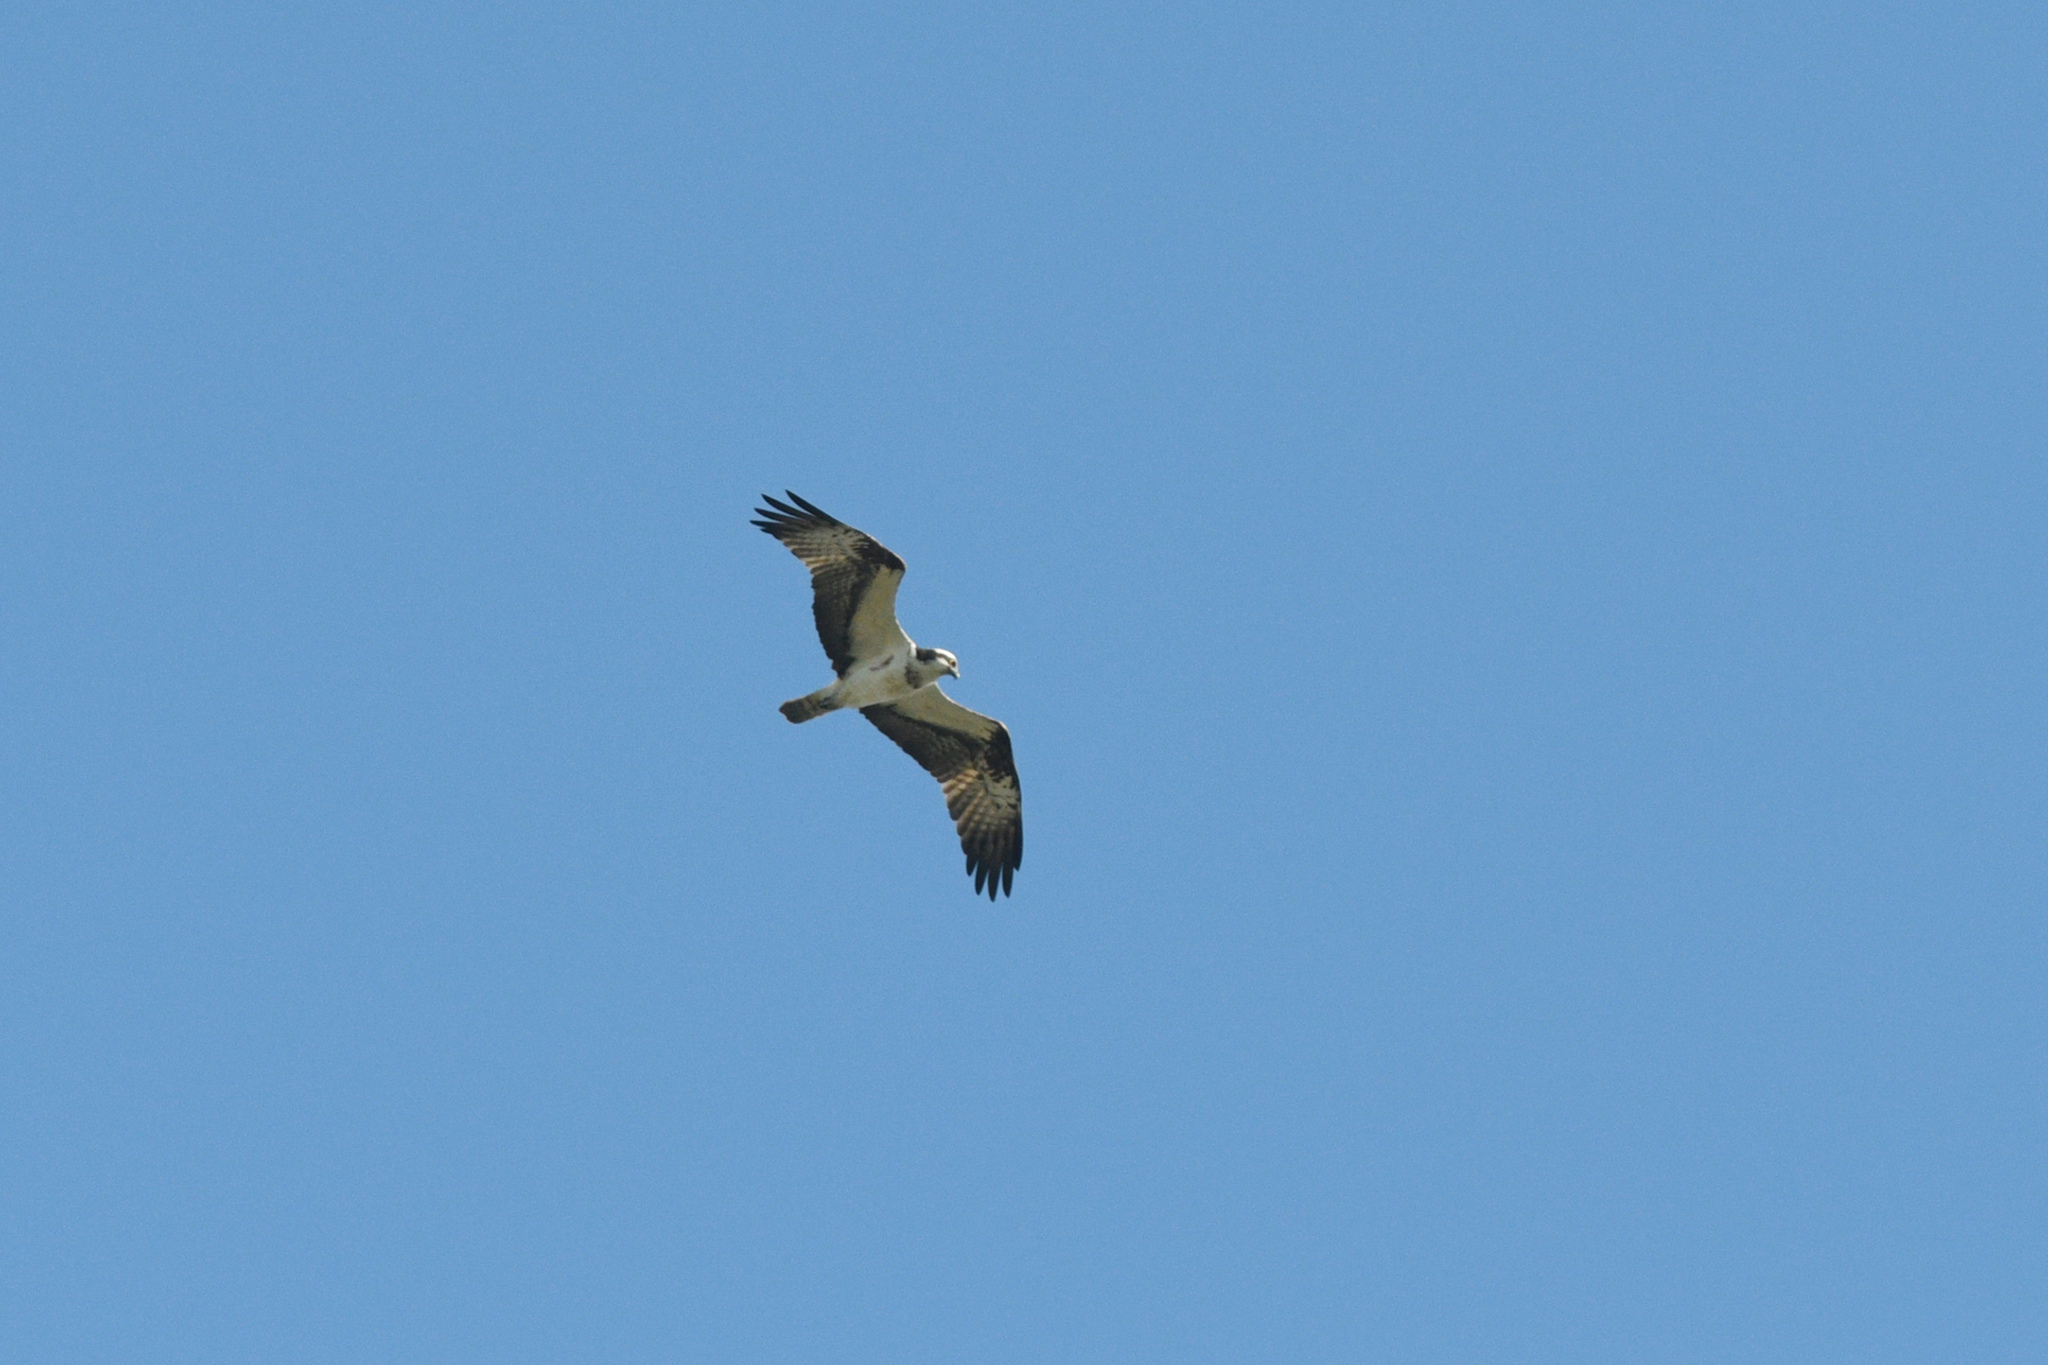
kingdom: Animalia
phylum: Chordata
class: Aves
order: Accipitriformes
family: Pandionidae
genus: Pandion
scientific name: Pandion haliaetus
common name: Osprey
